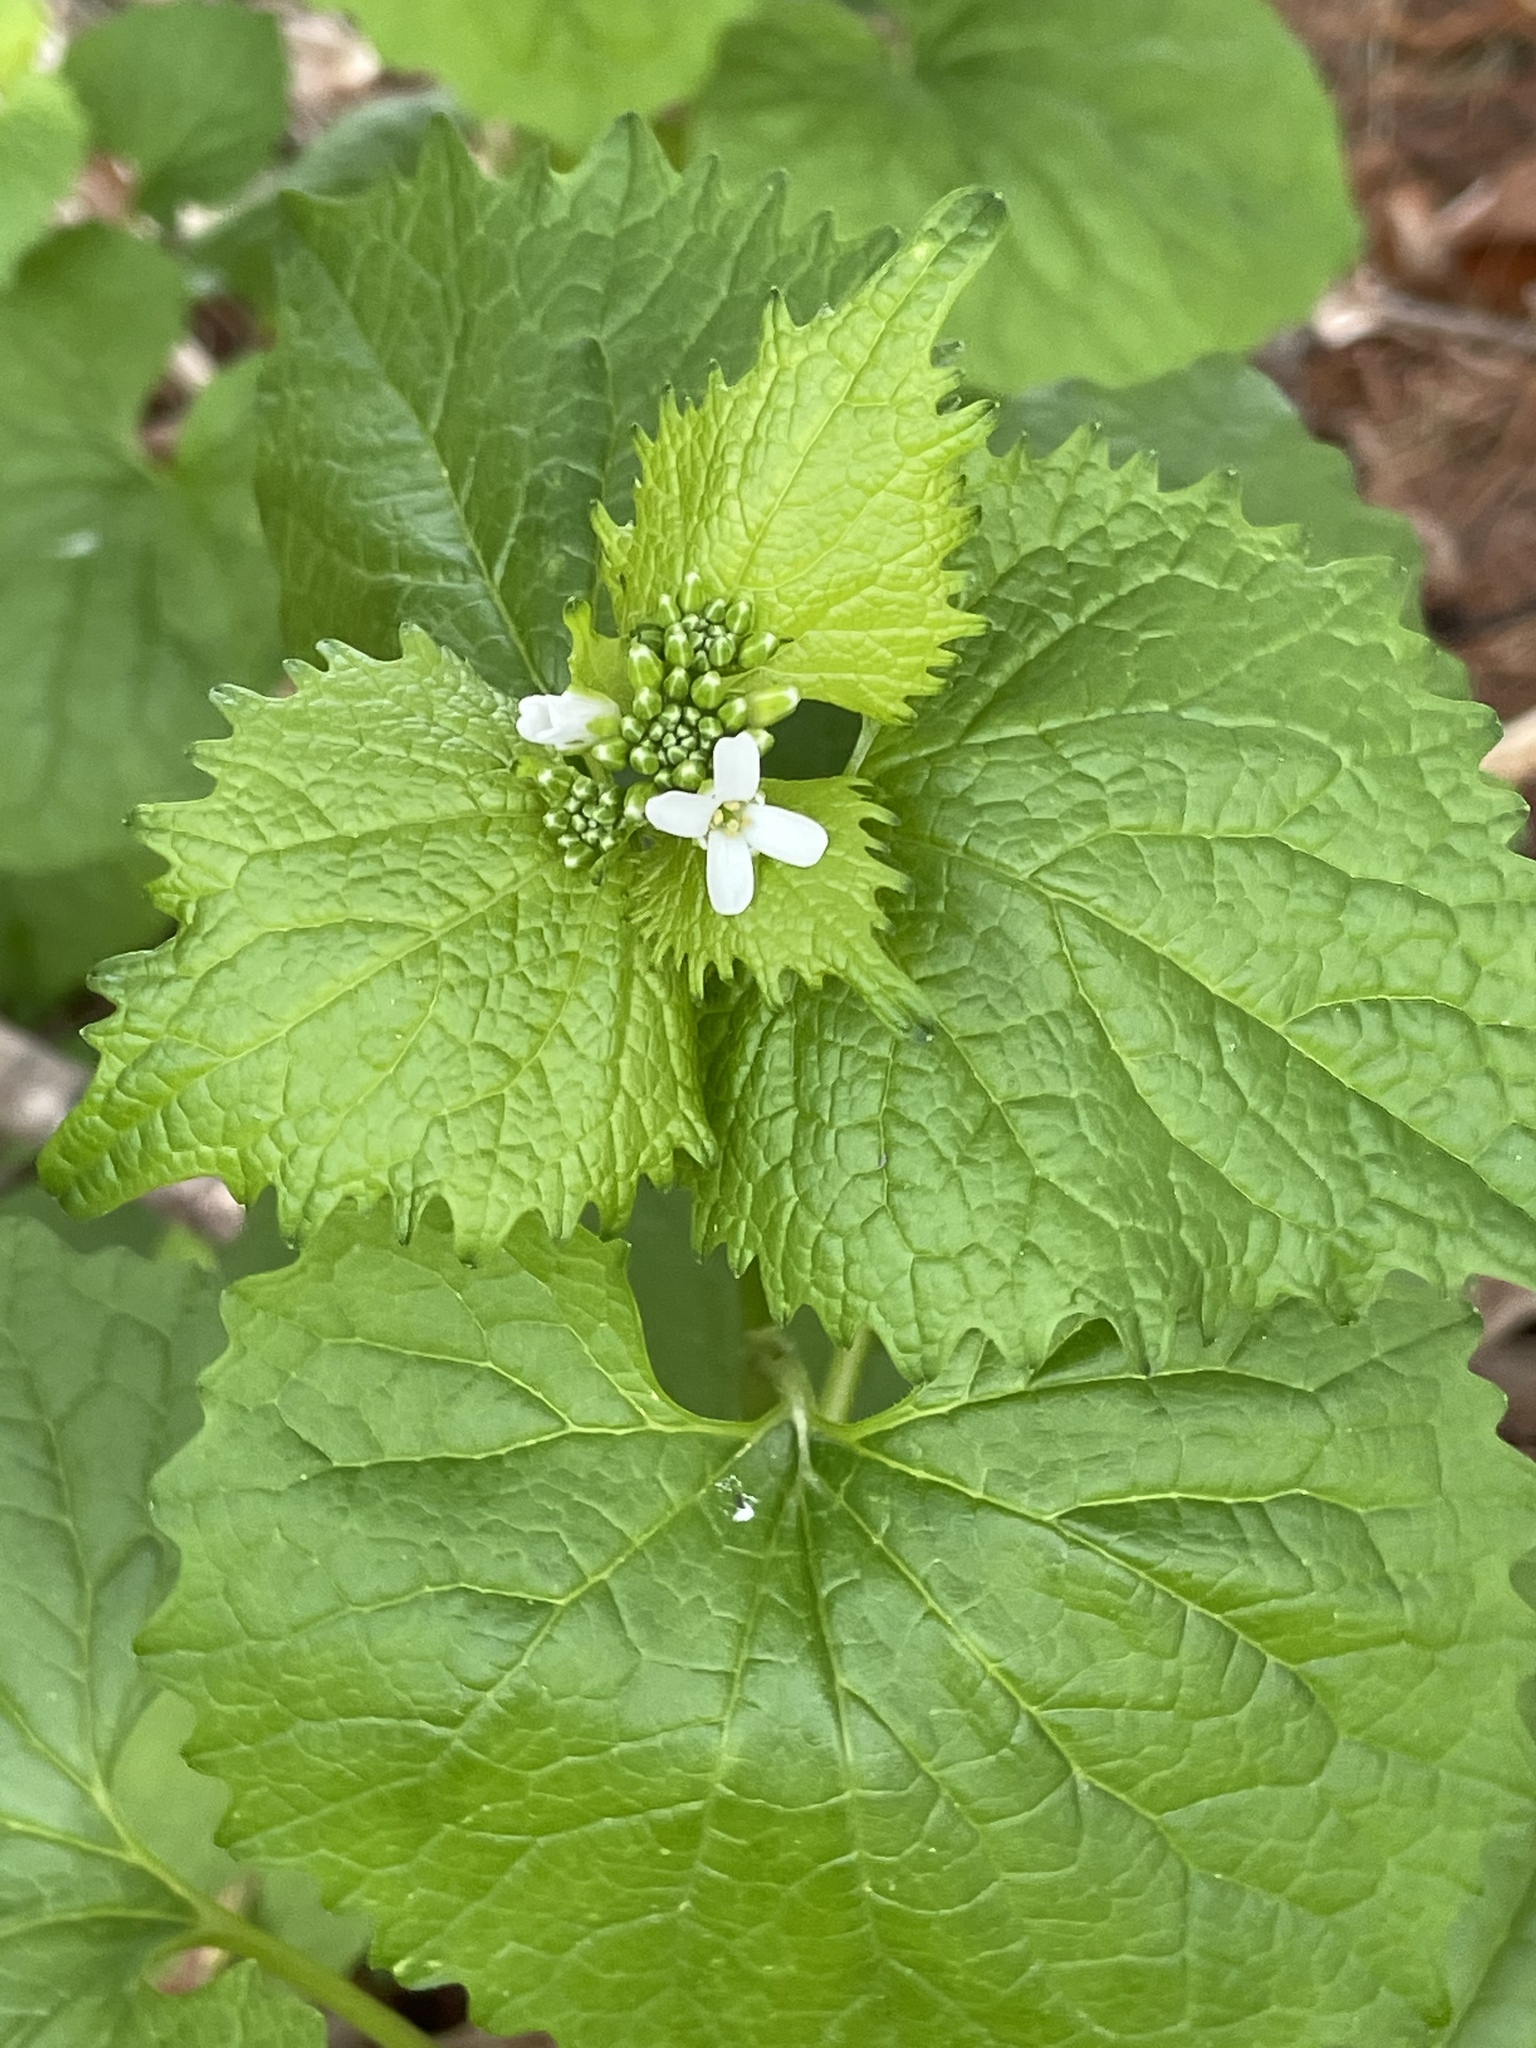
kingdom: Plantae
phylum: Tracheophyta
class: Magnoliopsida
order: Brassicales
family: Brassicaceae
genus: Alliaria
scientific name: Alliaria petiolata
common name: Garlic mustard
